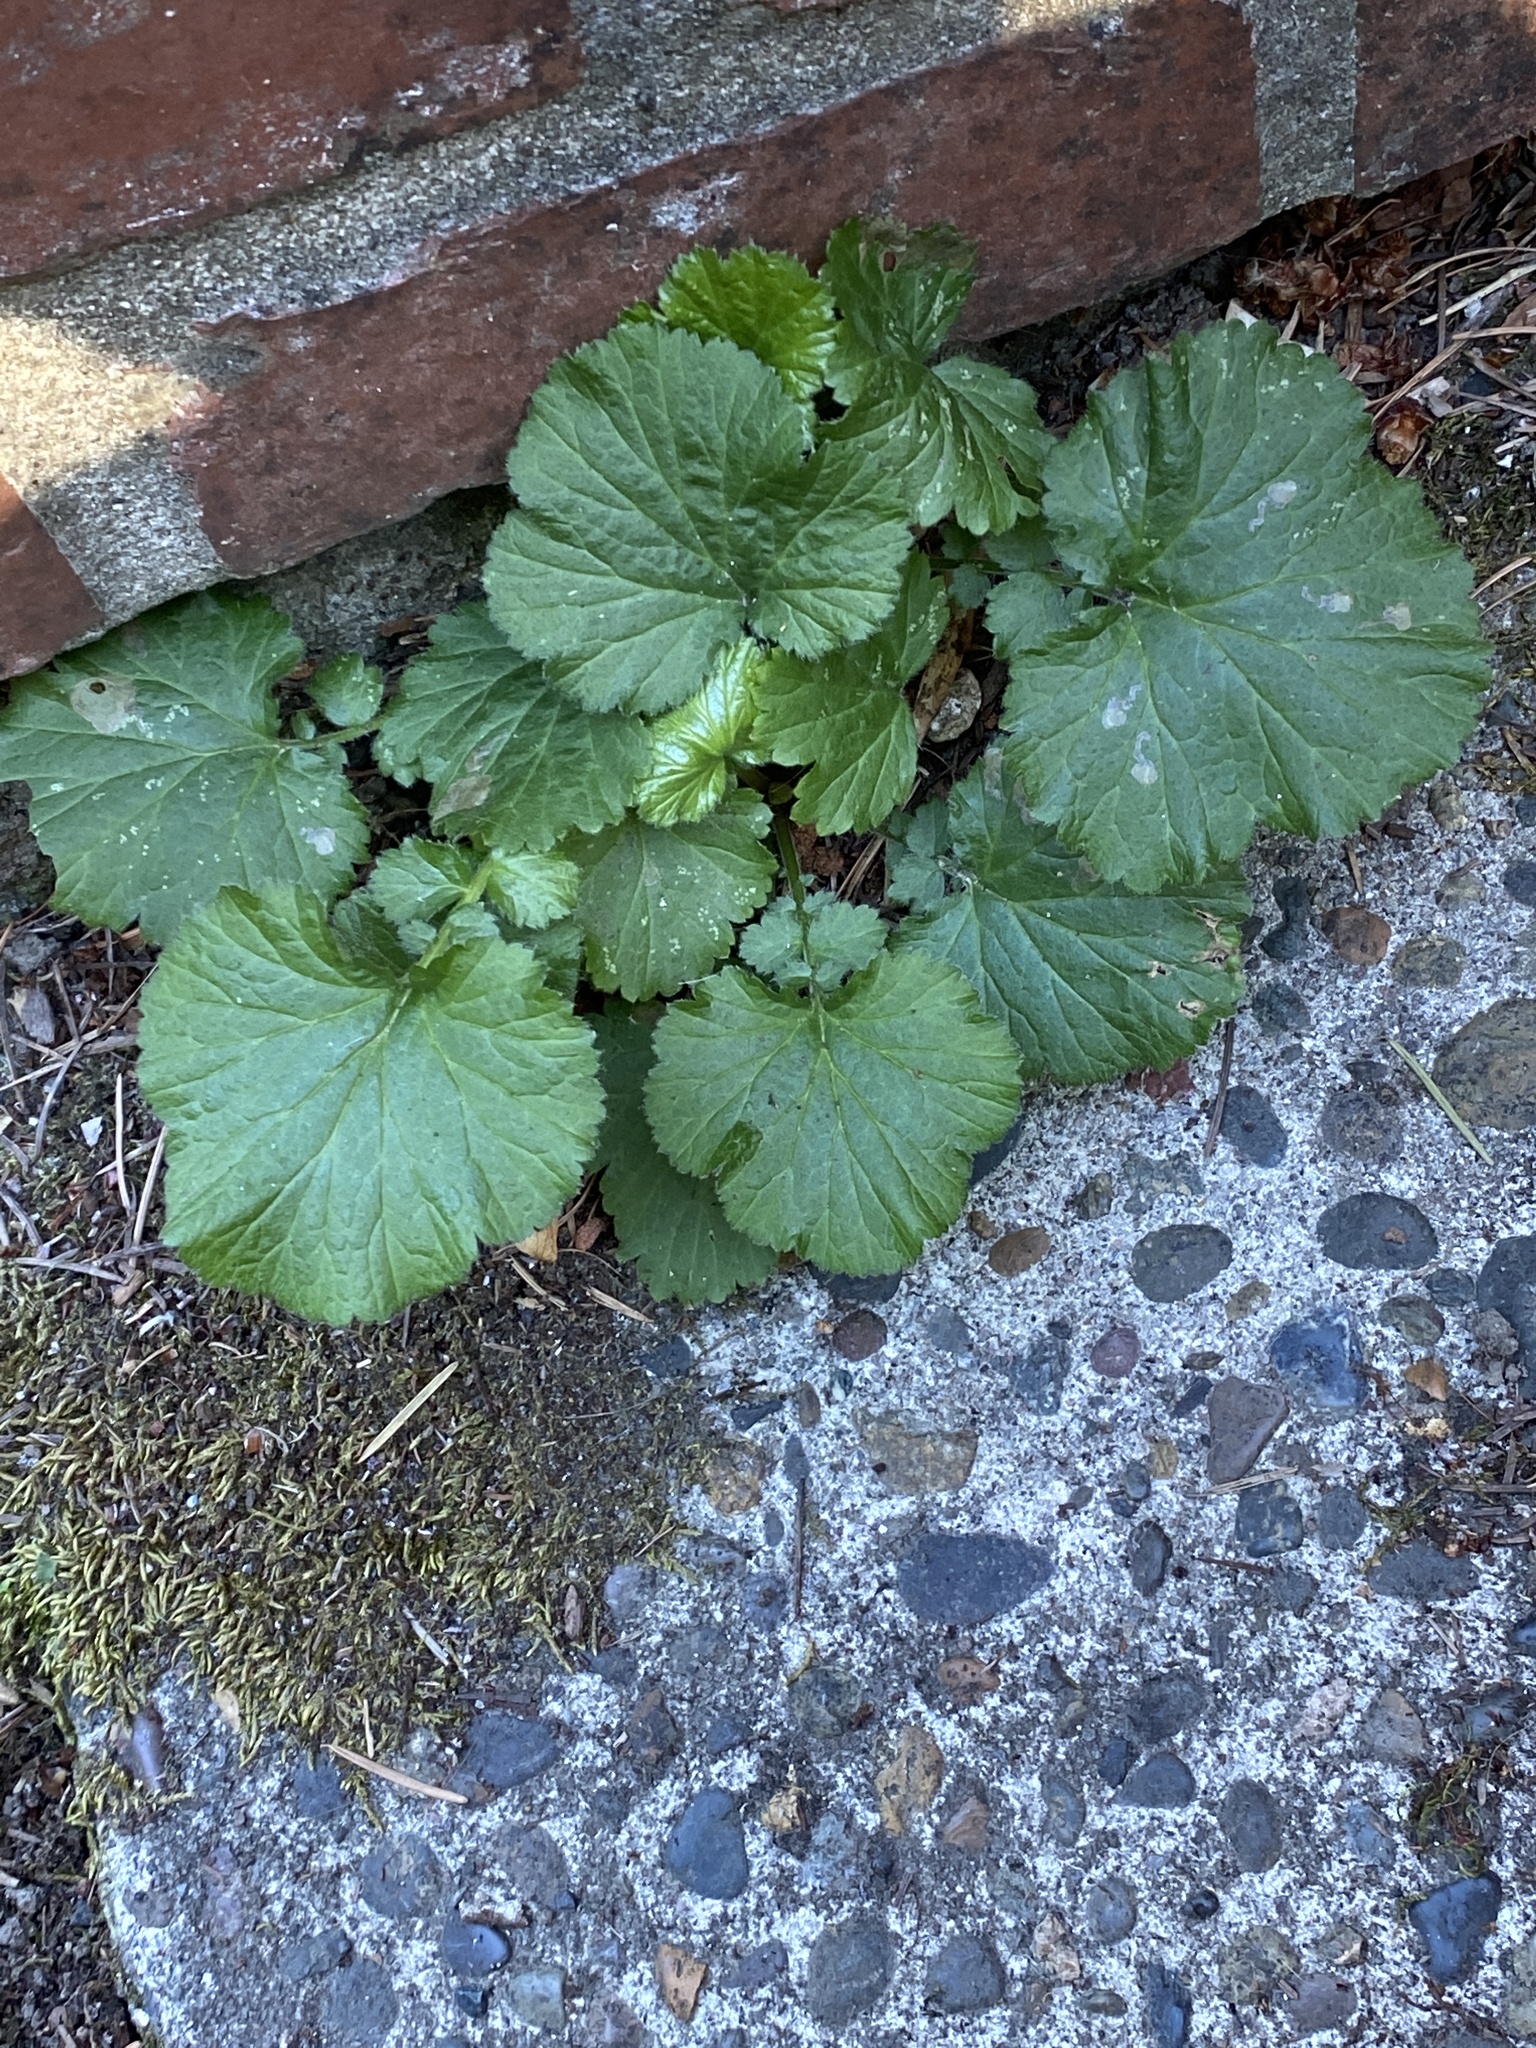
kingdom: Plantae
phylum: Tracheophyta
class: Magnoliopsida
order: Rosales
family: Rosaceae
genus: Geum
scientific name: Geum macrophyllum
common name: Large-leaved avens
